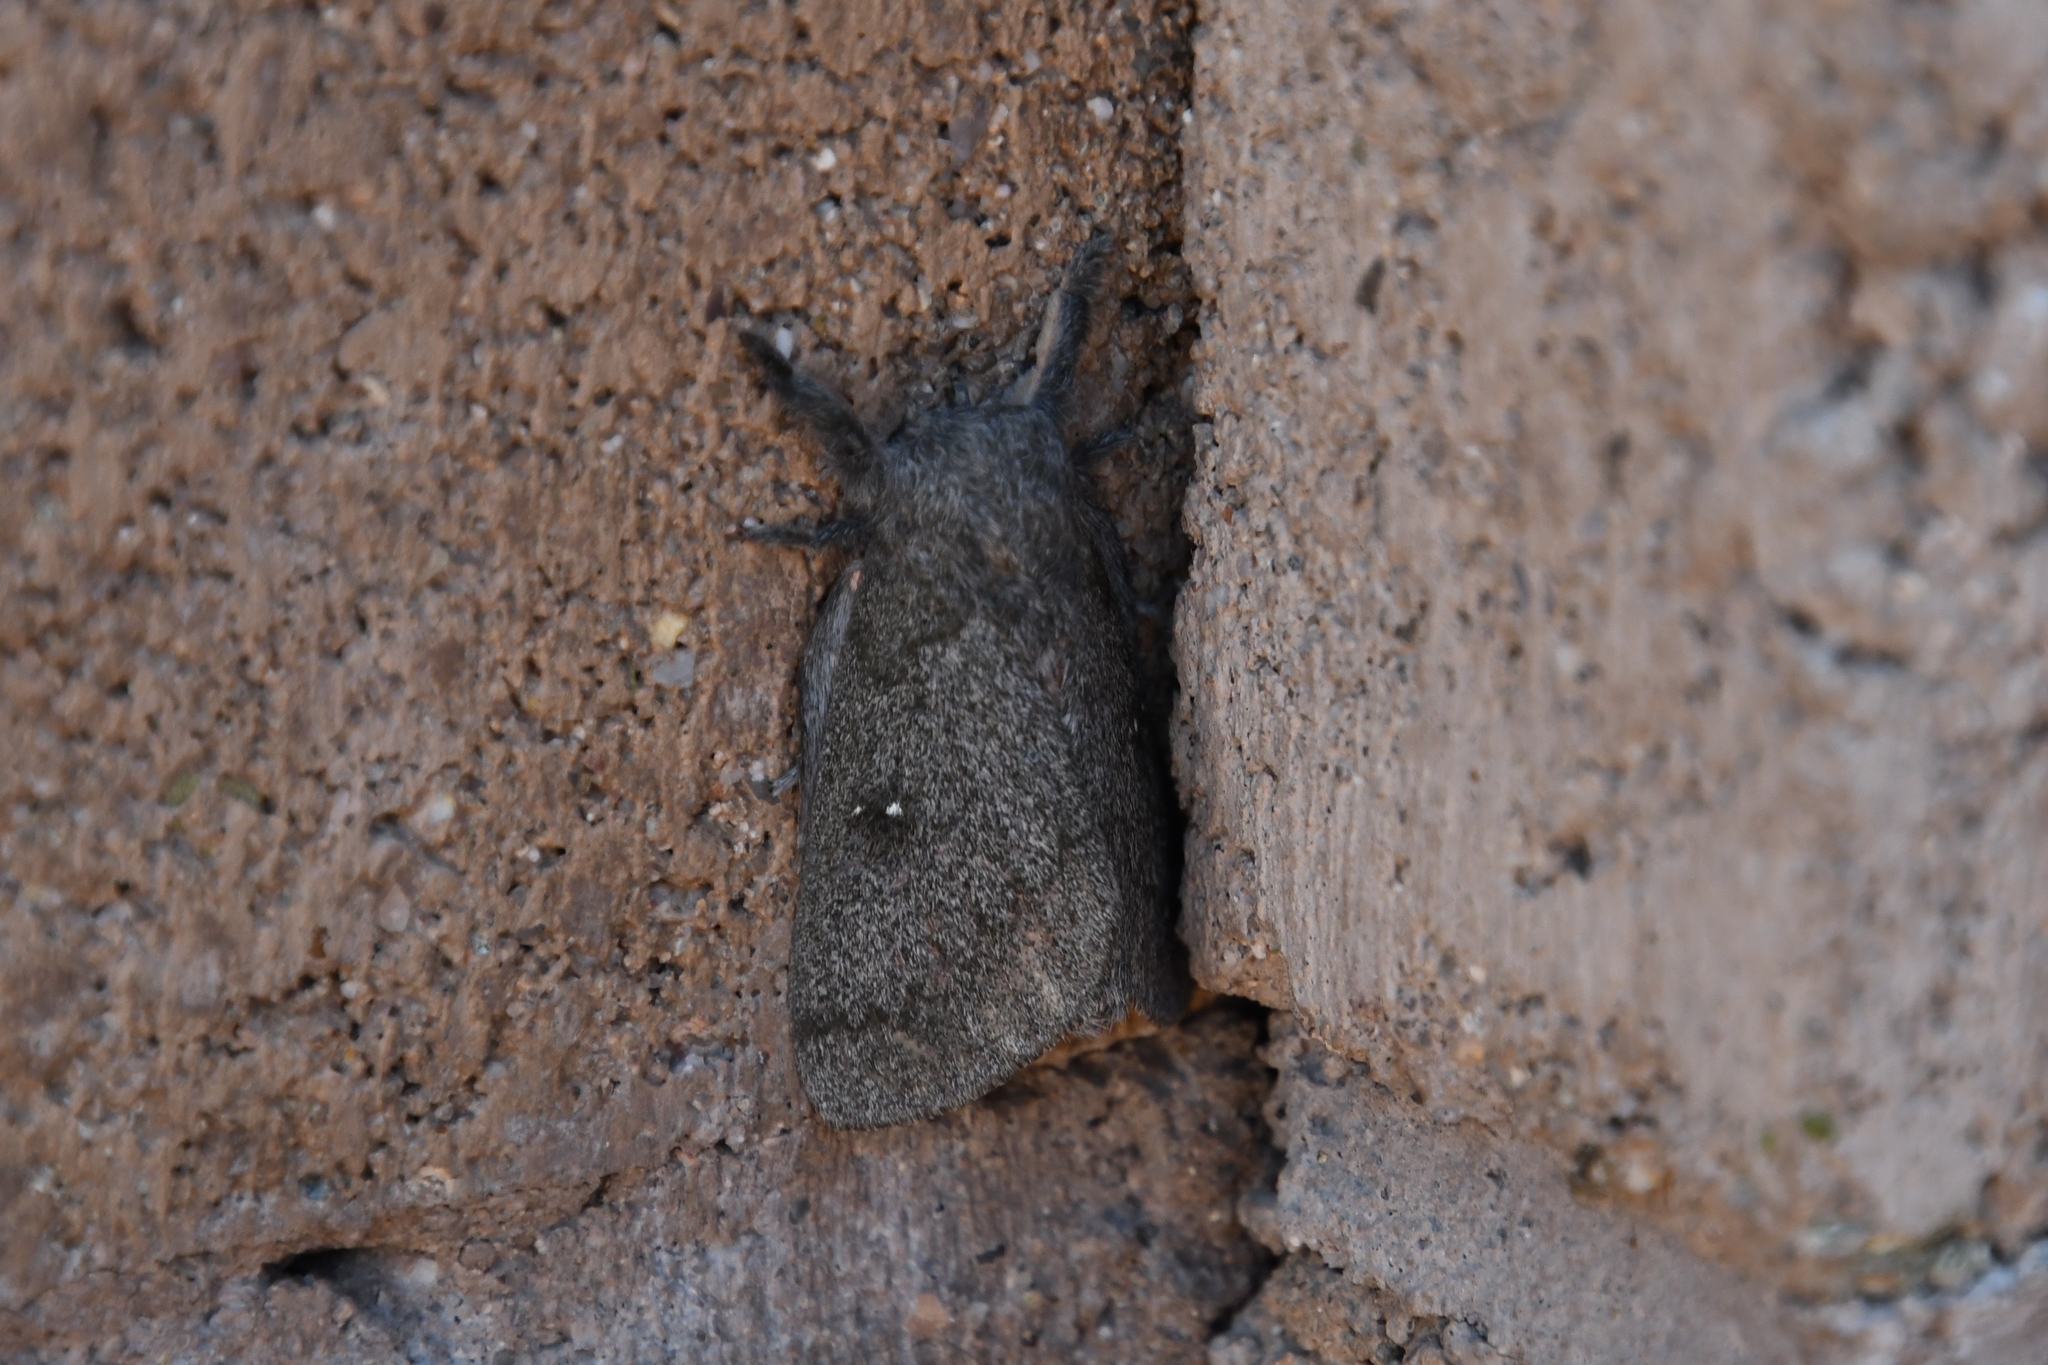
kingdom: Animalia
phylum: Arthropoda
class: Insecta
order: Lepidoptera
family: Saturniidae
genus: Syssphinx
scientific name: Syssphinx hubbardi
